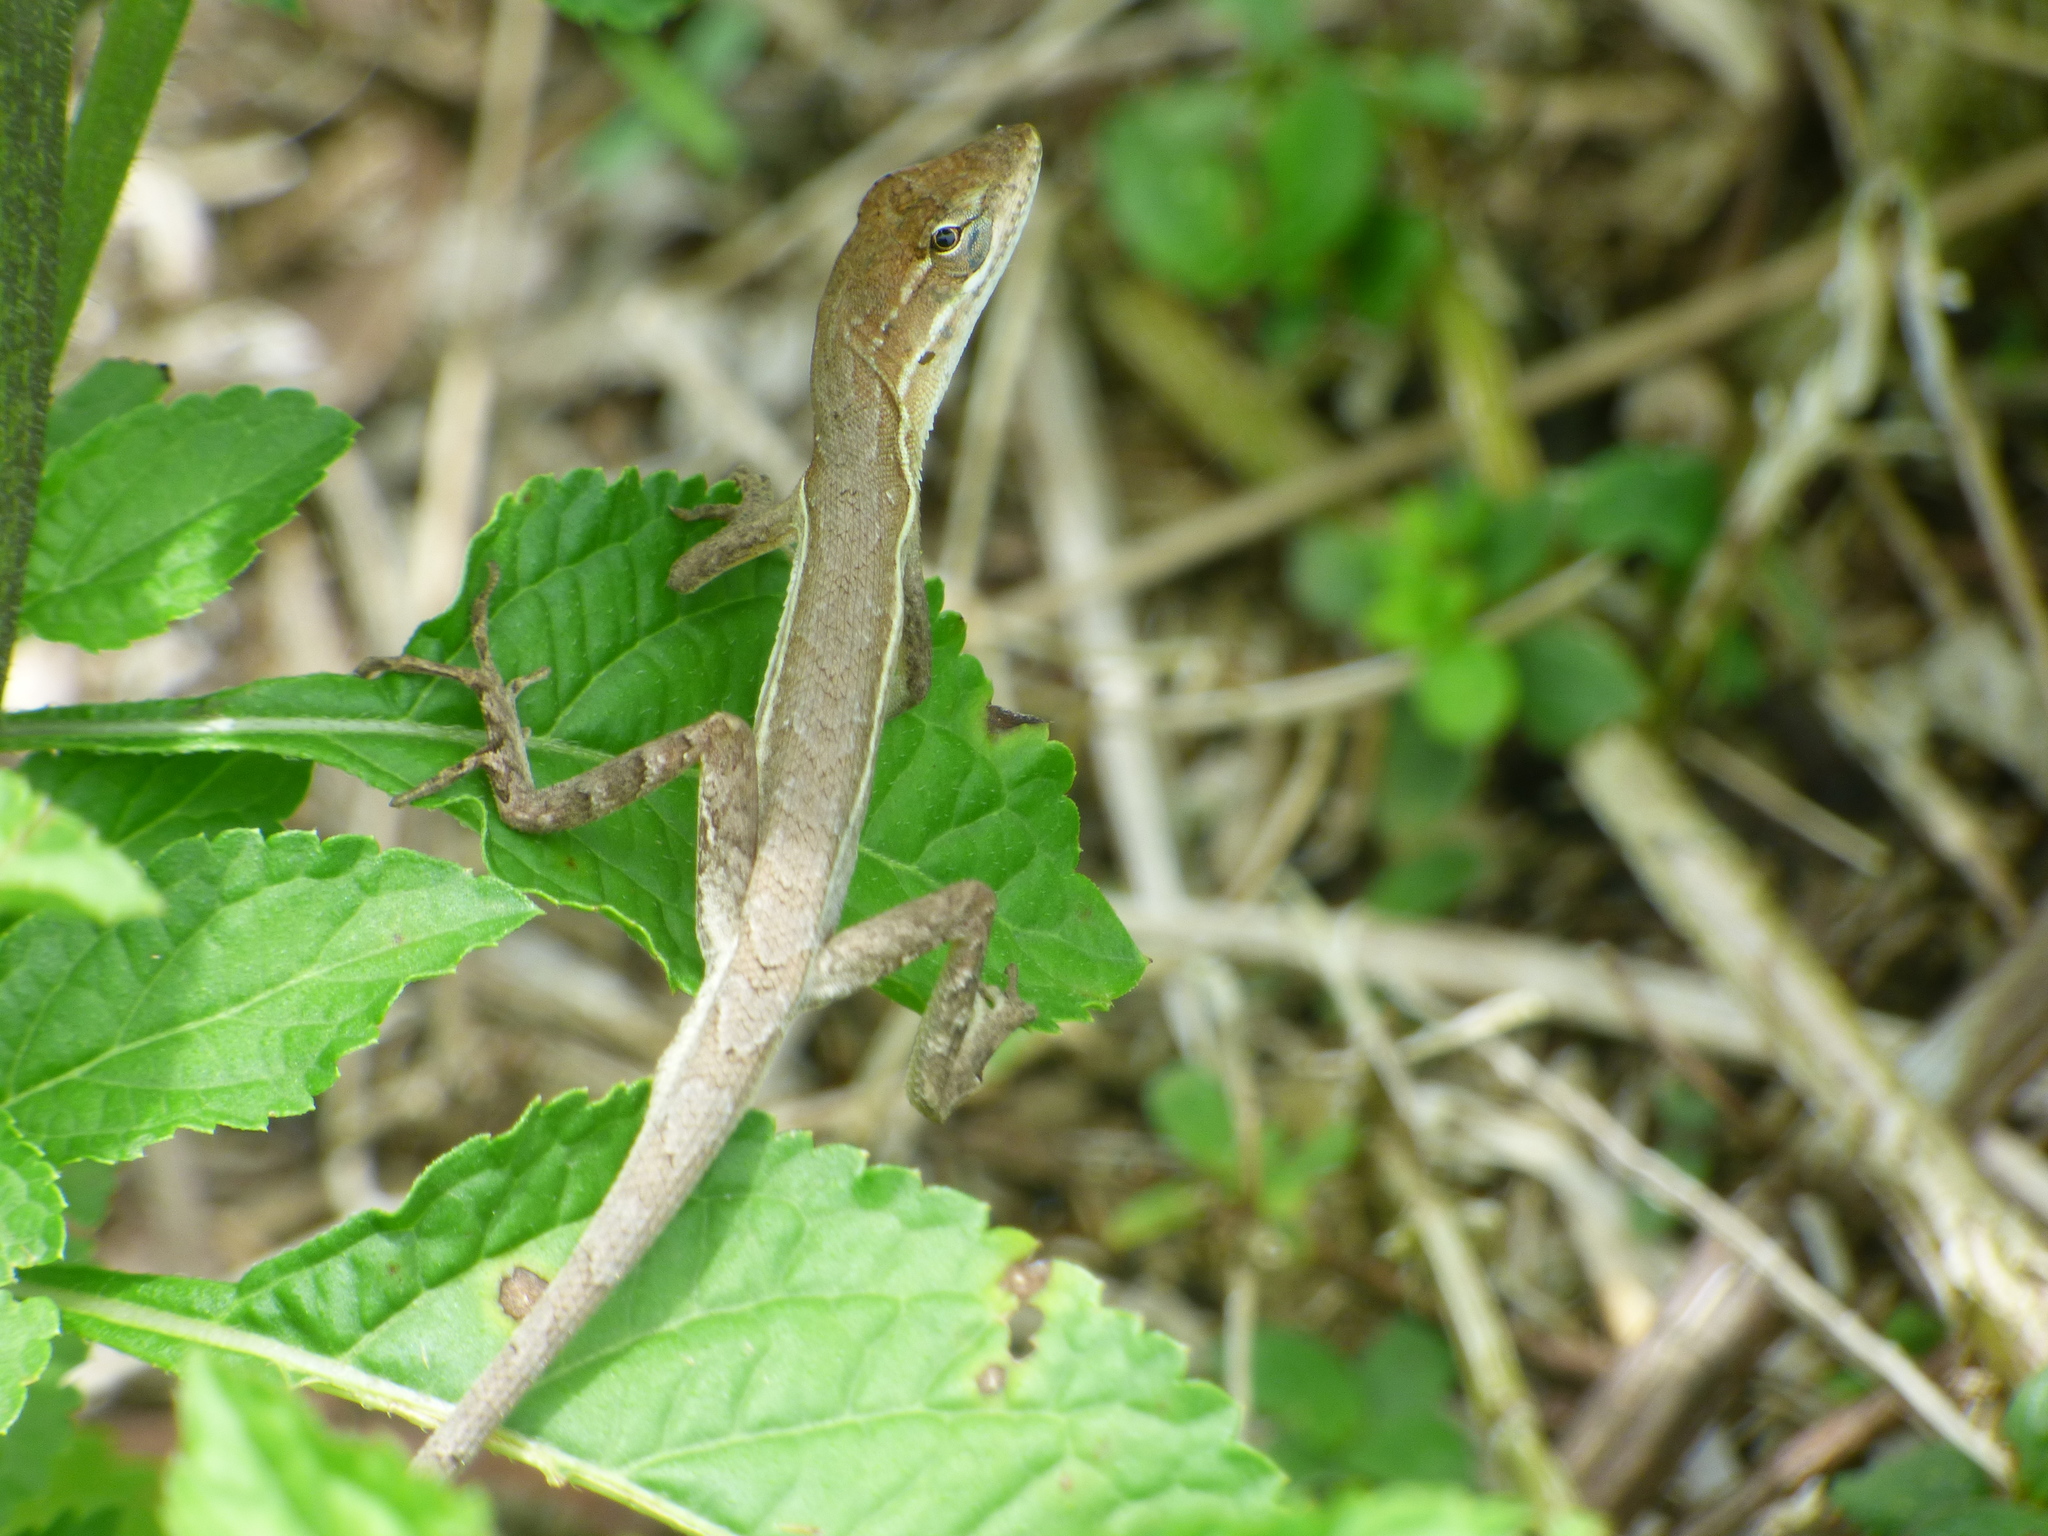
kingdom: Animalia
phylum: Chordata
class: Squamata
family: Dactyloidae
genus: Anolis
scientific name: Anolis auratus
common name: Grass anole
